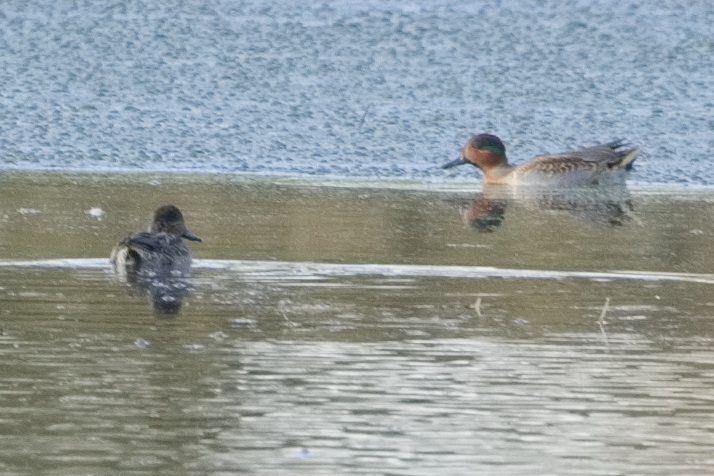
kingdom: Animalia
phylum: Chordata
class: Aves
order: Anseriformes
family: Anatidae
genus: Anas
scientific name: Anas crecca
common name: Eurasian teal
